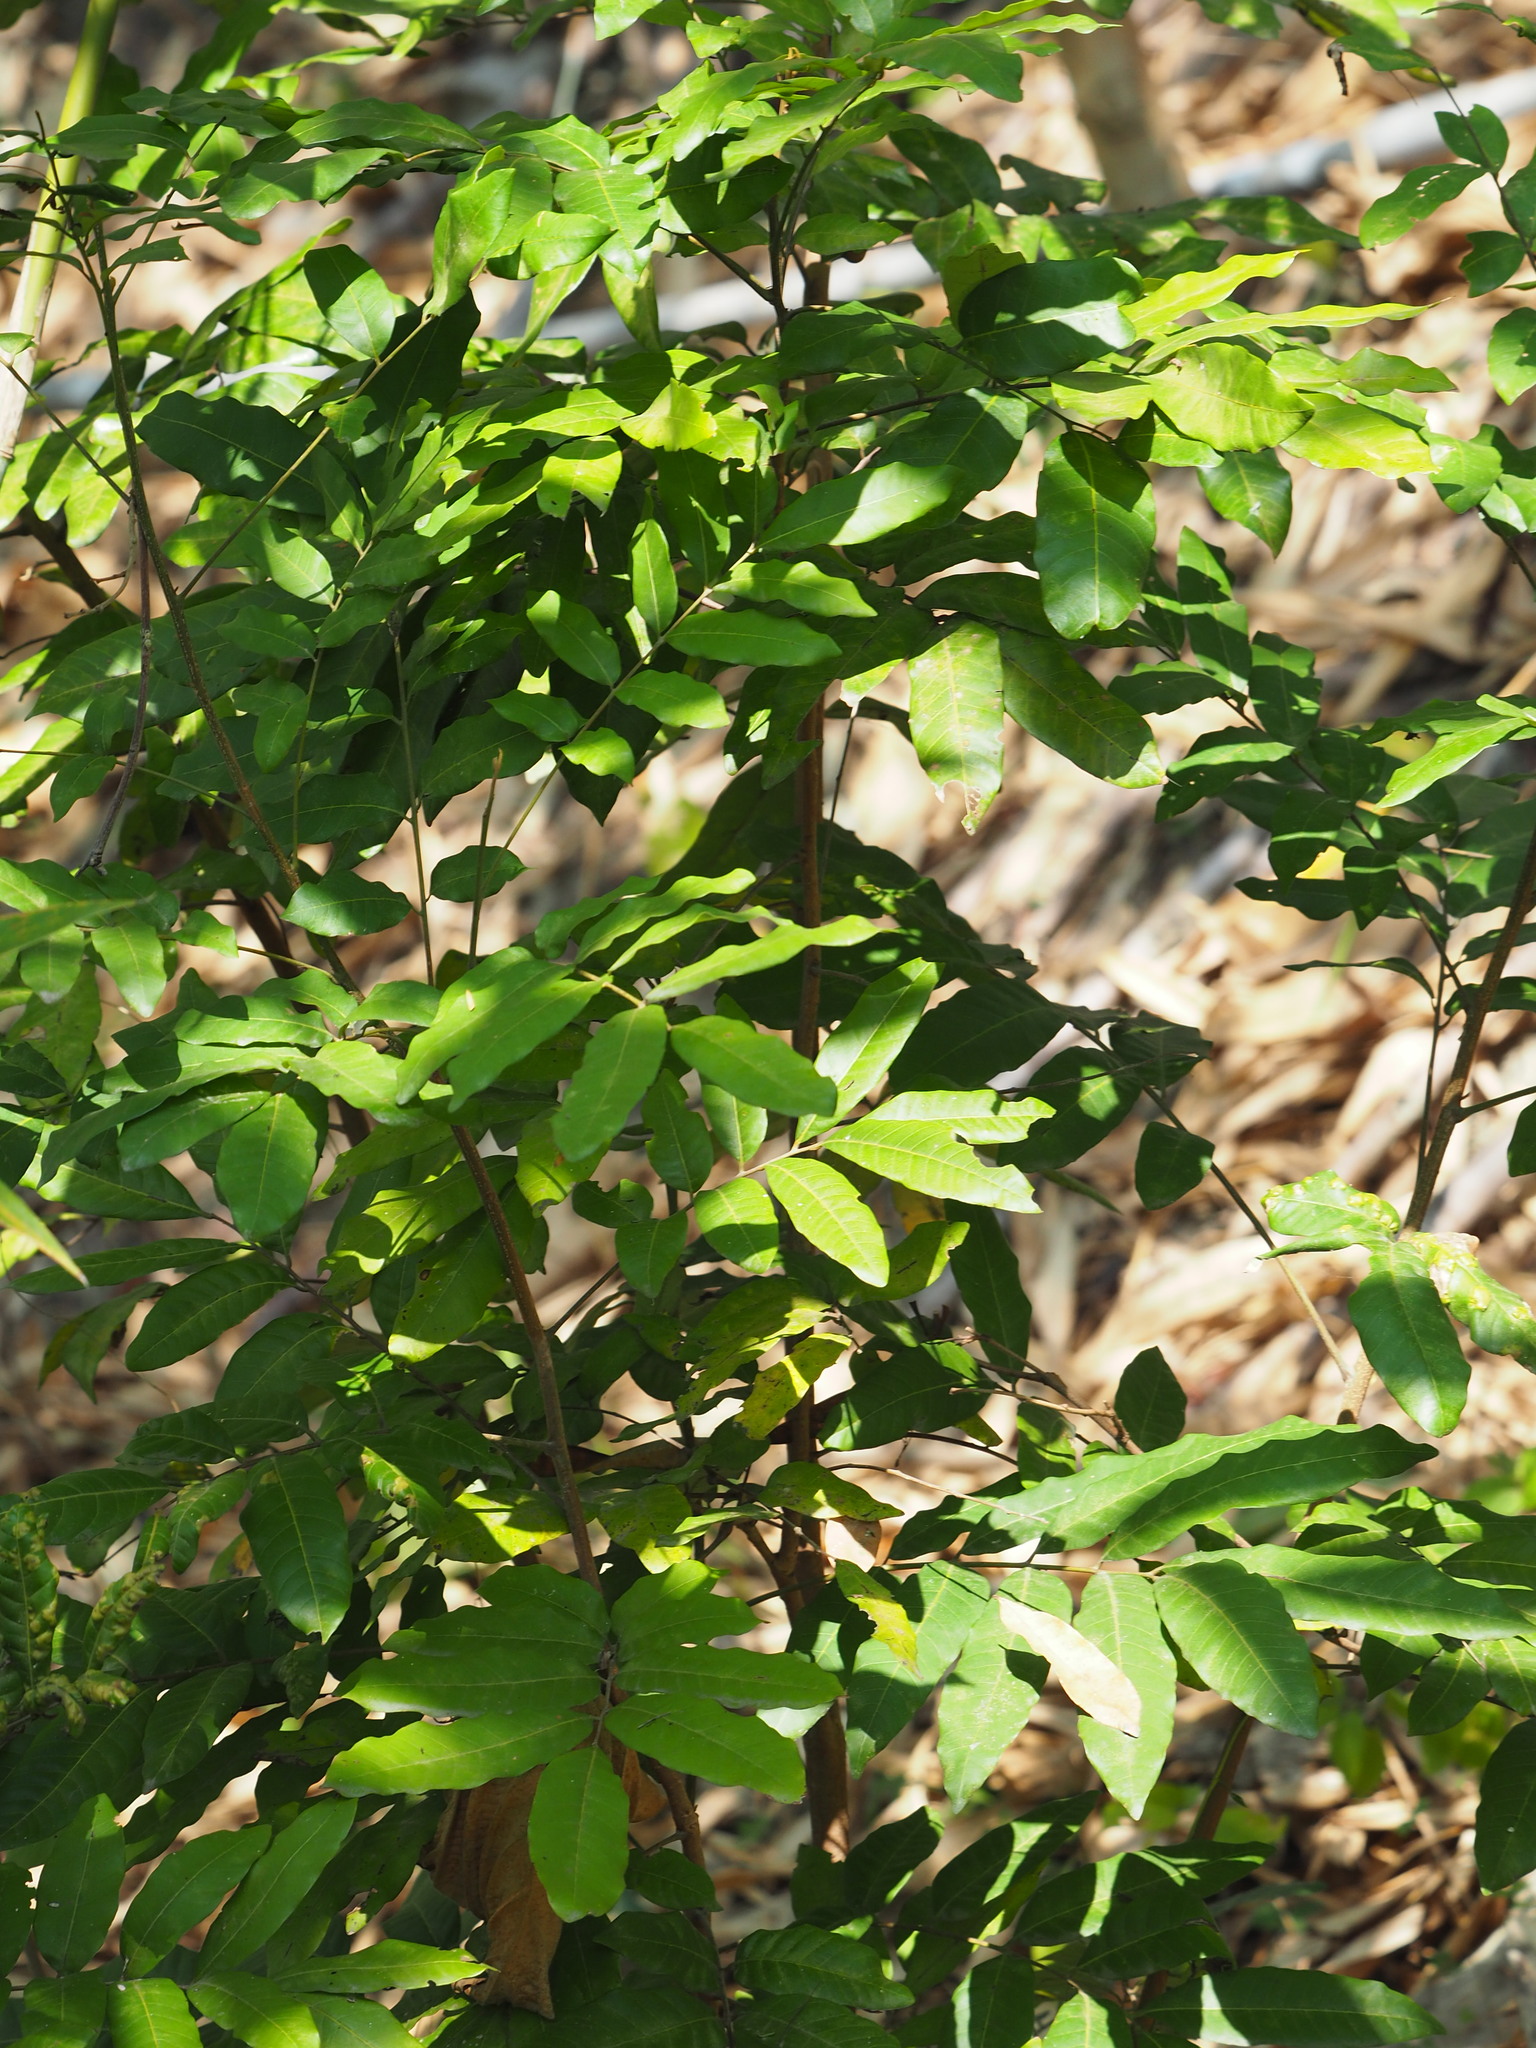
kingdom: Plantae
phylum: Tracheophyta
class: Magnoliopsida
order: Sapindales
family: Sapindaceae
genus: Dimocarpus
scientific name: Dimocarpus longan
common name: Longan
